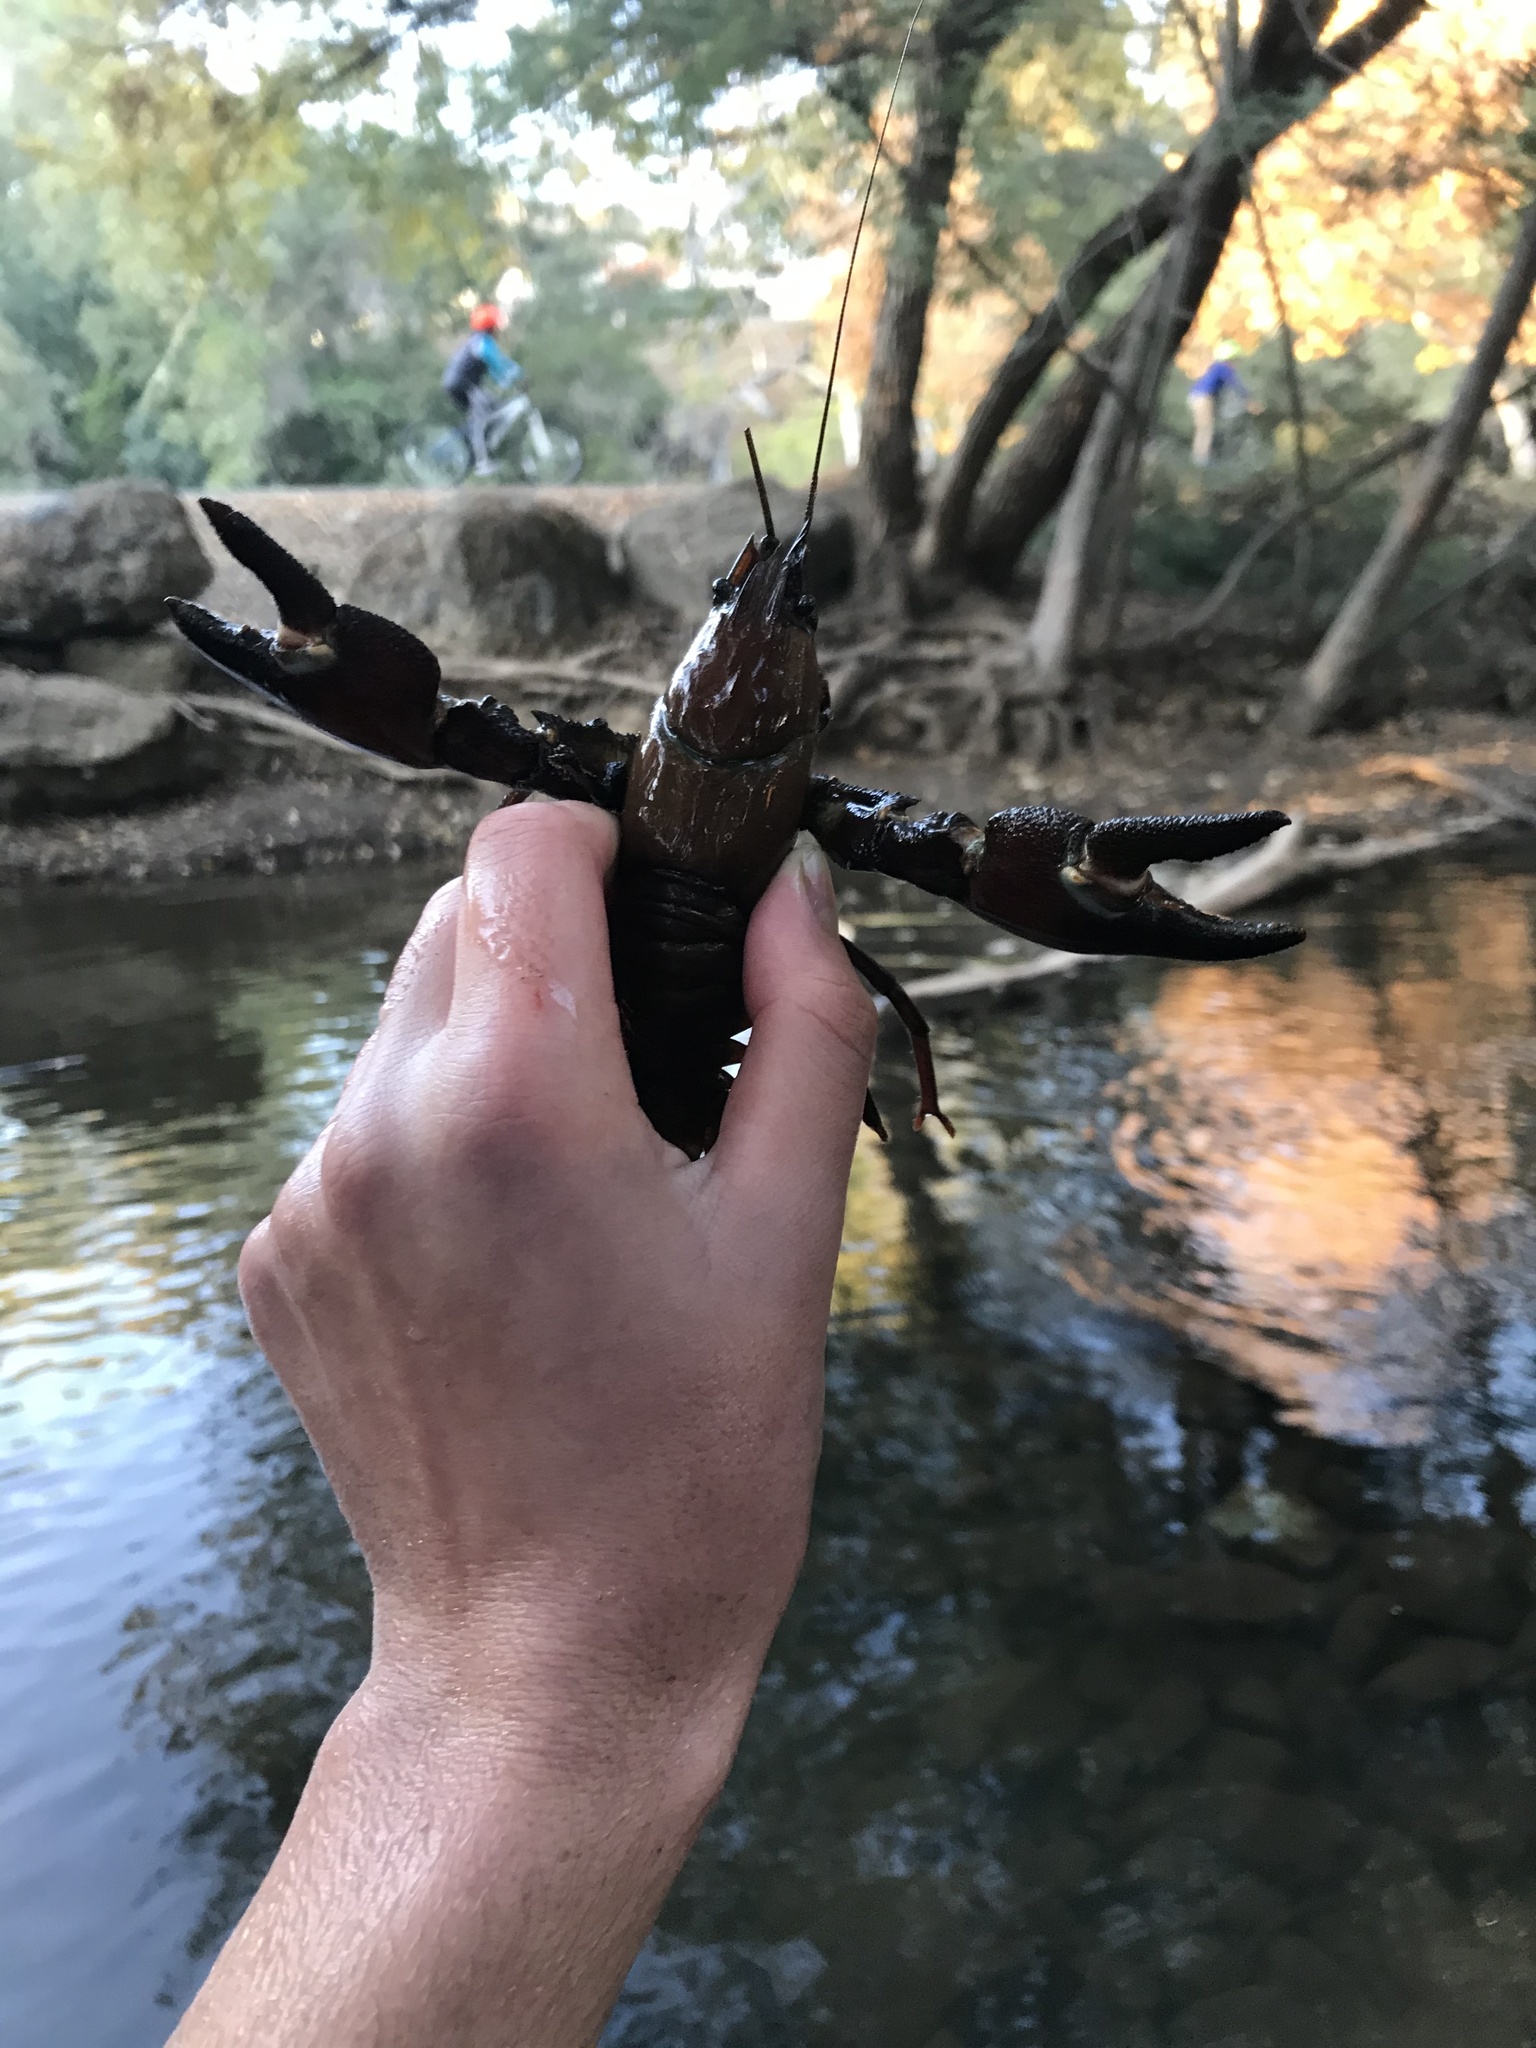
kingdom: Animalia
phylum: Arthropoda
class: Malacostraca
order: Decapoda
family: Astacidae
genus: Pacifastacus
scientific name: Pacifastacus leniusculus
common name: Signal crayfish
